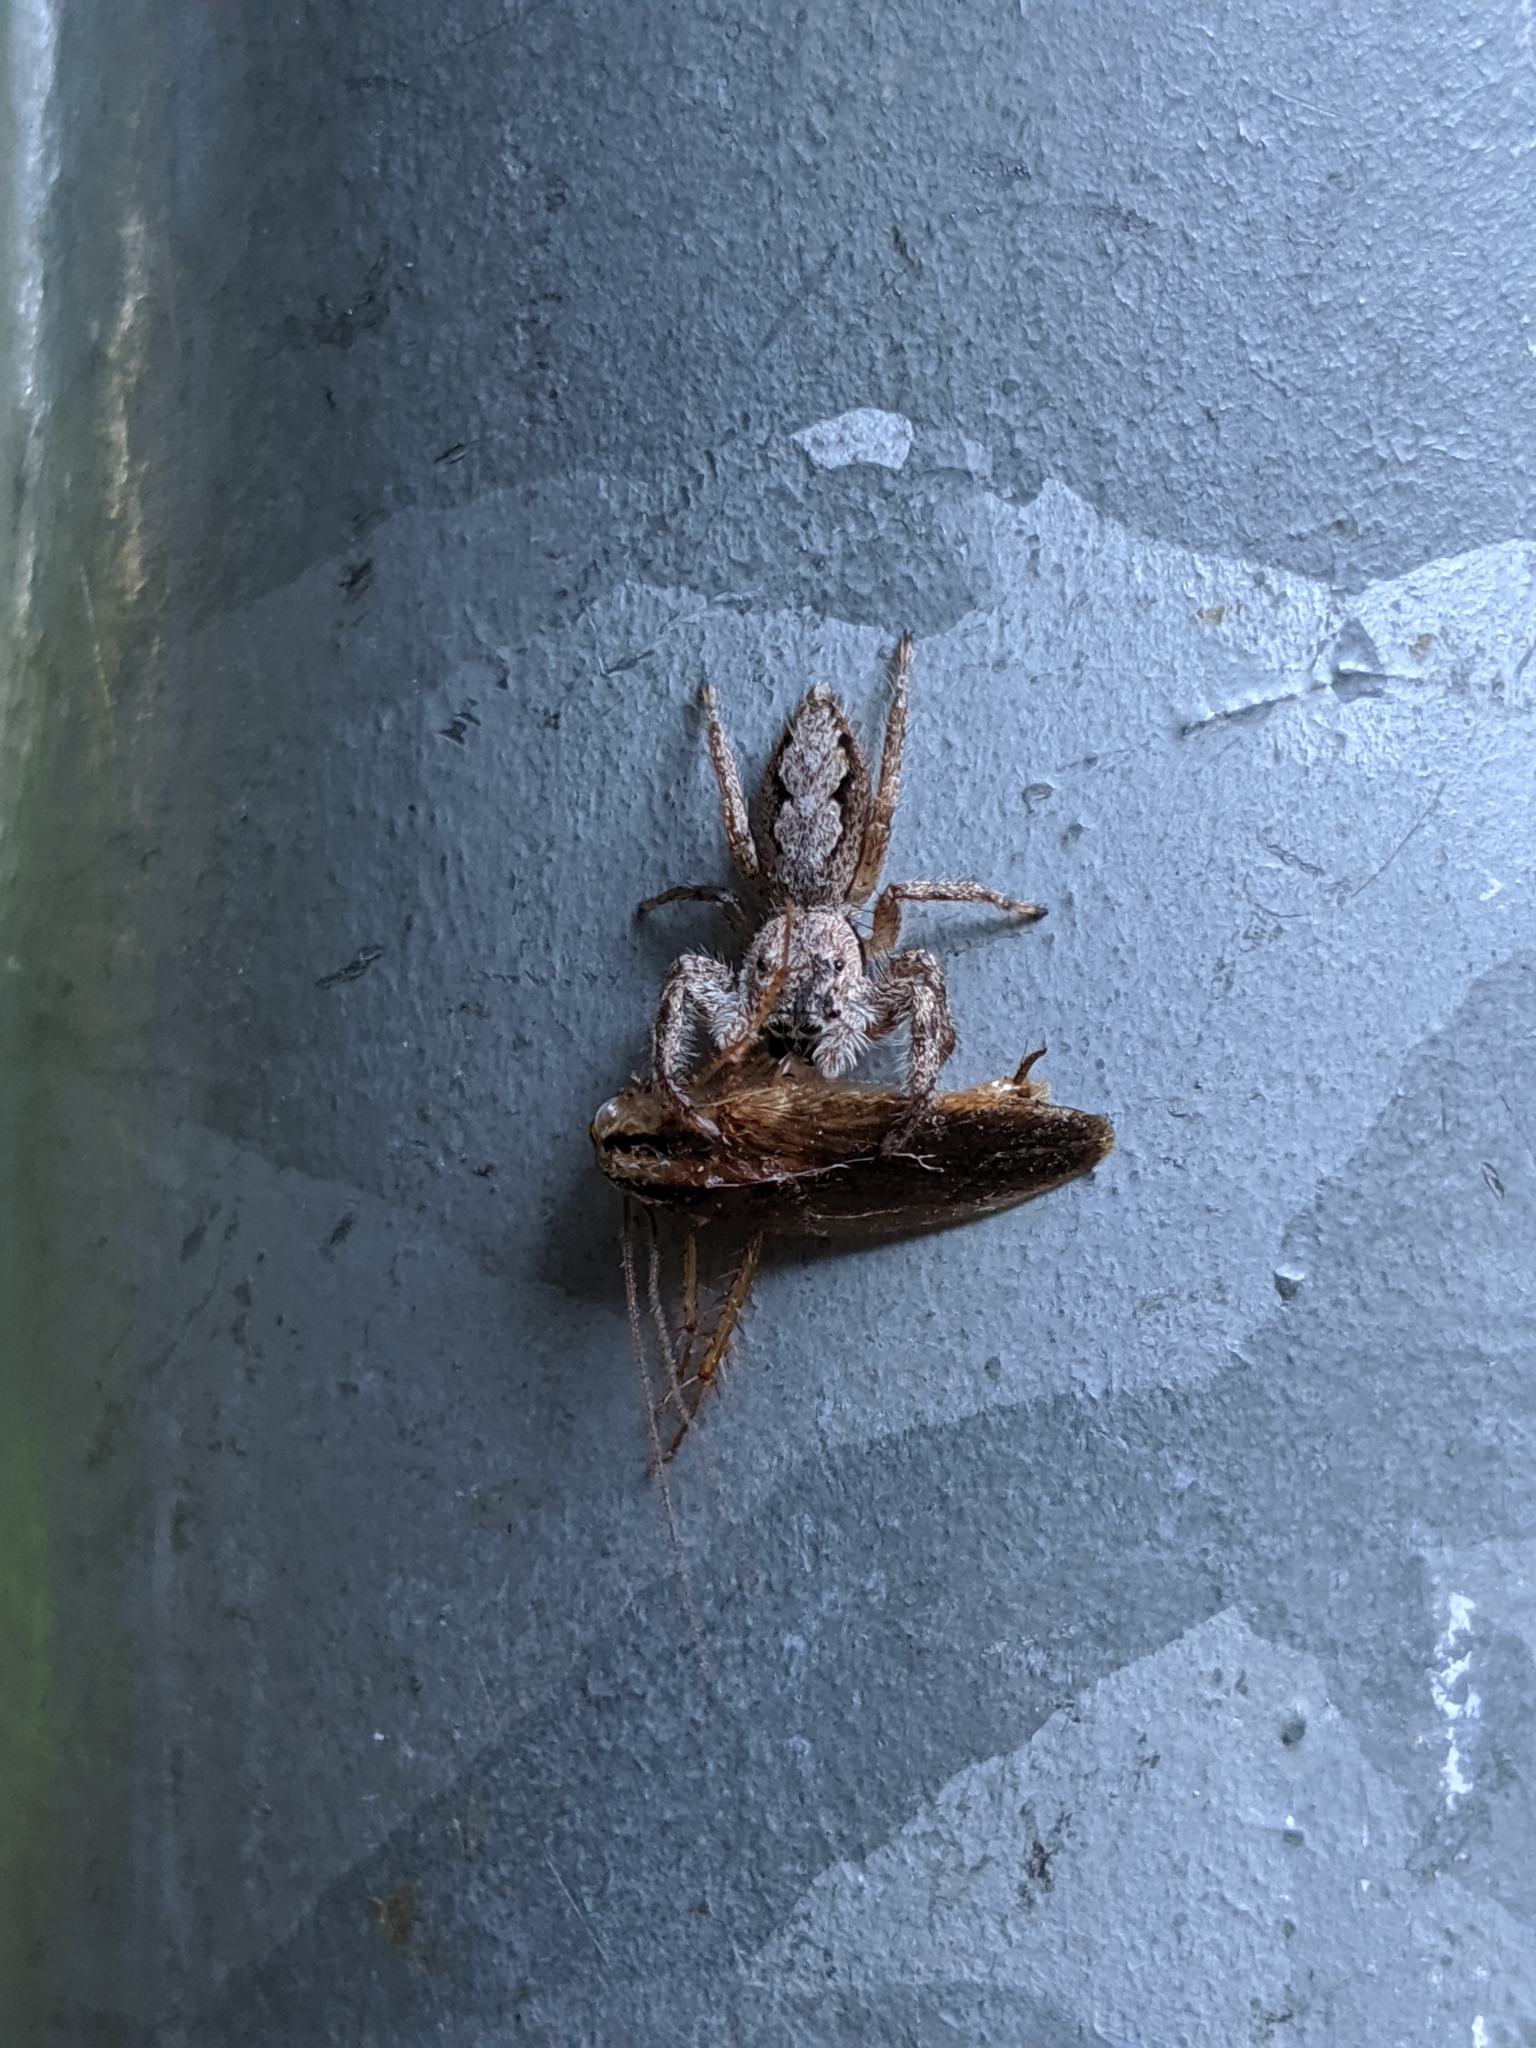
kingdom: Animalia
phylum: Arthropoda
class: Arachnida
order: Araneae
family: Salticidae
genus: Platycryptus
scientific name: Platycryptus undatus
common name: Tan jumping spider
